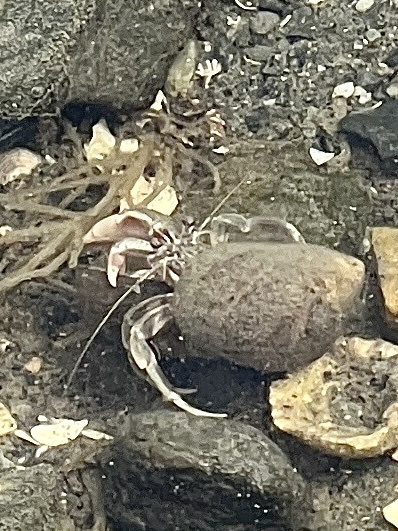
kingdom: Animalia
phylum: Arthropoda
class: Malacostraca
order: Decapoda
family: Paguridae
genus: Pagurus
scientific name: Pagurus longicarpus
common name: Long-armed hermit crab
